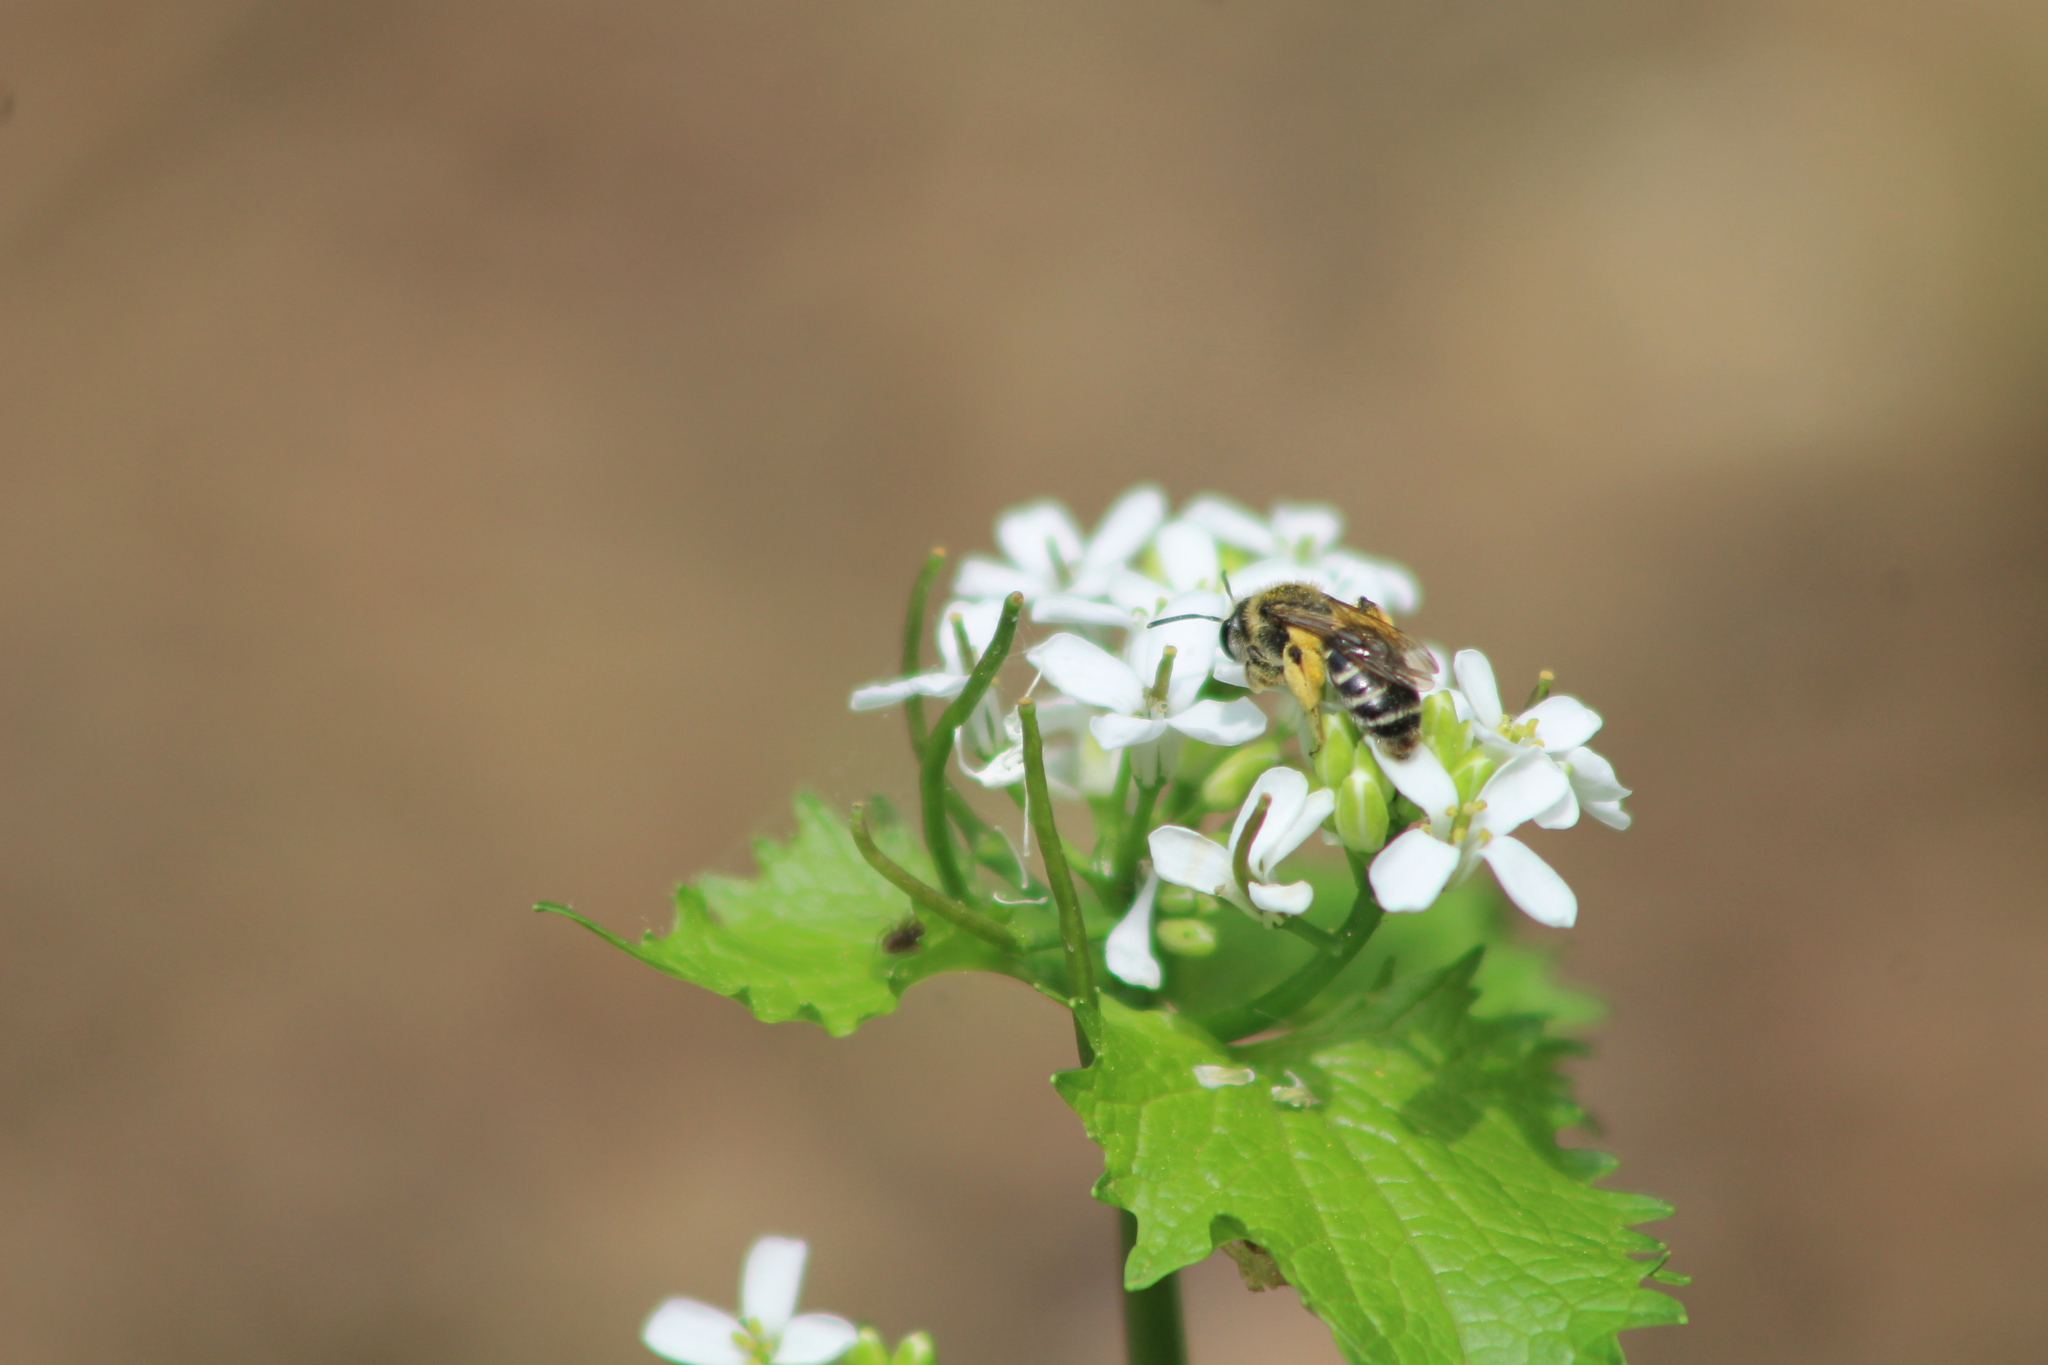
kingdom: Animalia
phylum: Arthropoda
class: Insecta
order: Hymenoptera
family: Andrenidae
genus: Andrena
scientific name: Andrena
